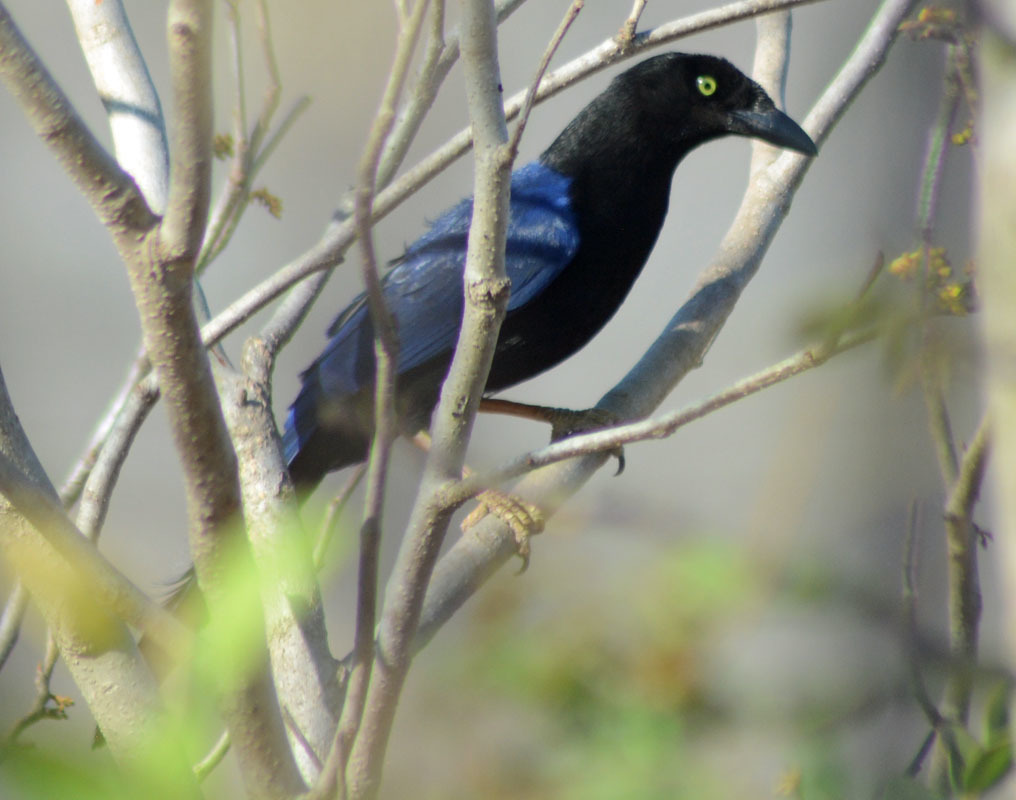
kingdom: Animalia
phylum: Chordata
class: Aves
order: Passeriformes
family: Corvidae
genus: Cyanocorax
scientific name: Cyanocorax beecheii
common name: Purplish-backed jay
